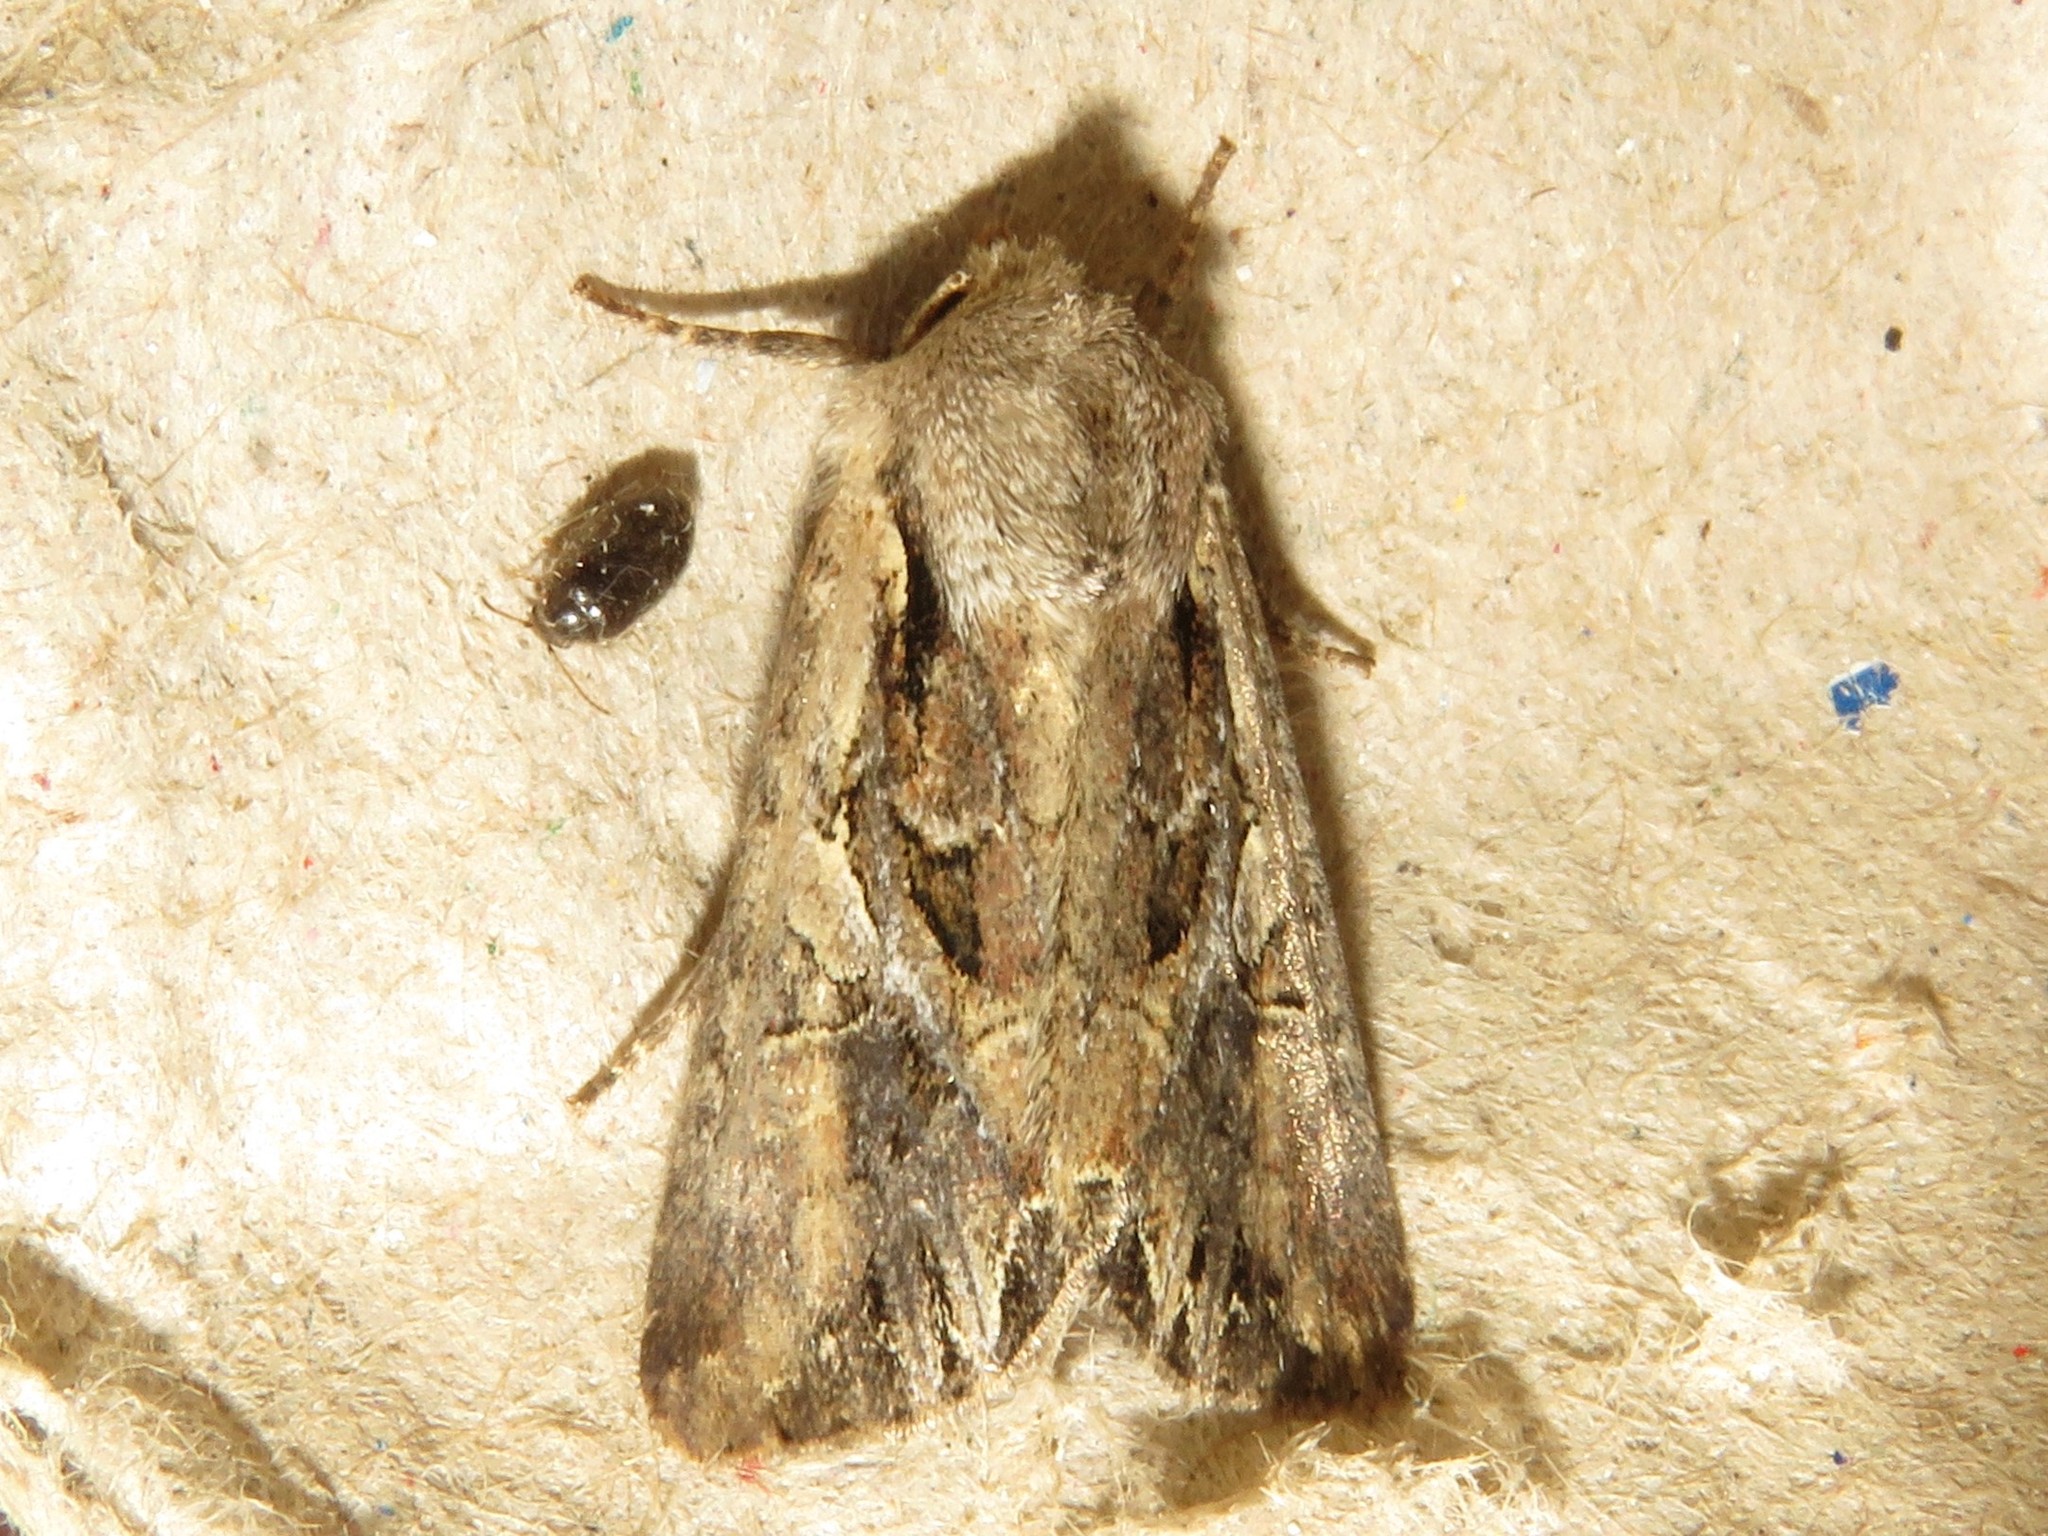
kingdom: Animalia
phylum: Arthropoda
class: Insecta
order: Lepidoptera
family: Noctuidae
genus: Lacanobia
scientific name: Lacanobia atlantica
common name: Atlantic arches moth
